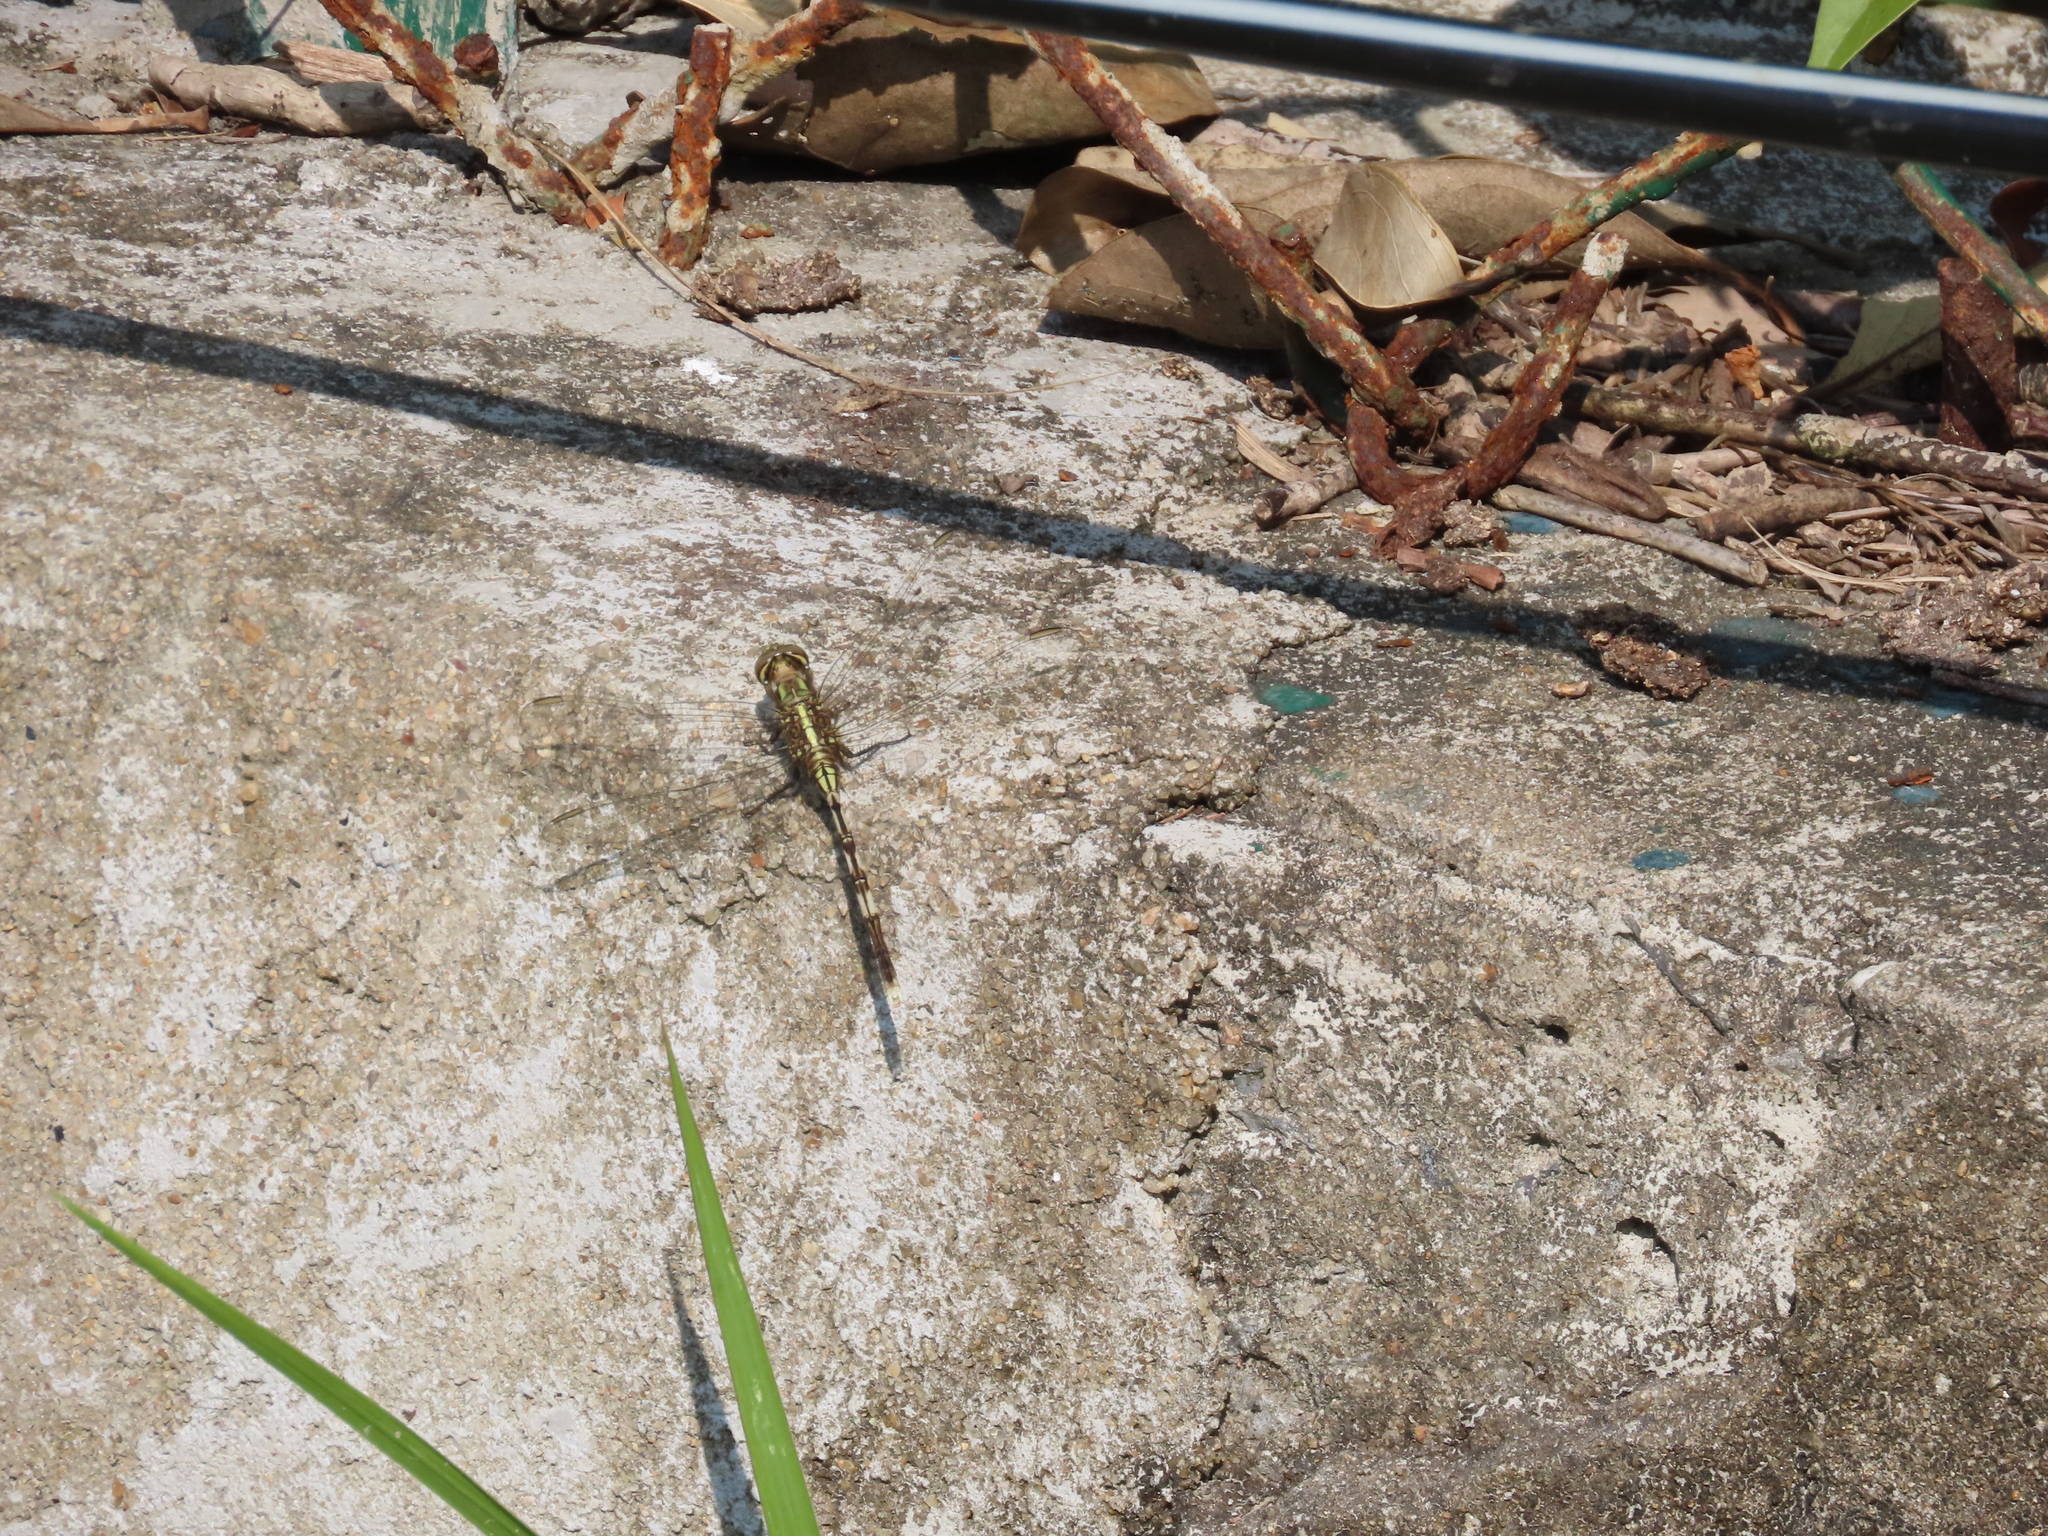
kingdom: Animalia
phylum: Arthropoda
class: Insecta
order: Odonata
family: Libellulidae
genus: Orthetrum
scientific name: Orthetrum sabina
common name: Slender skimmer
